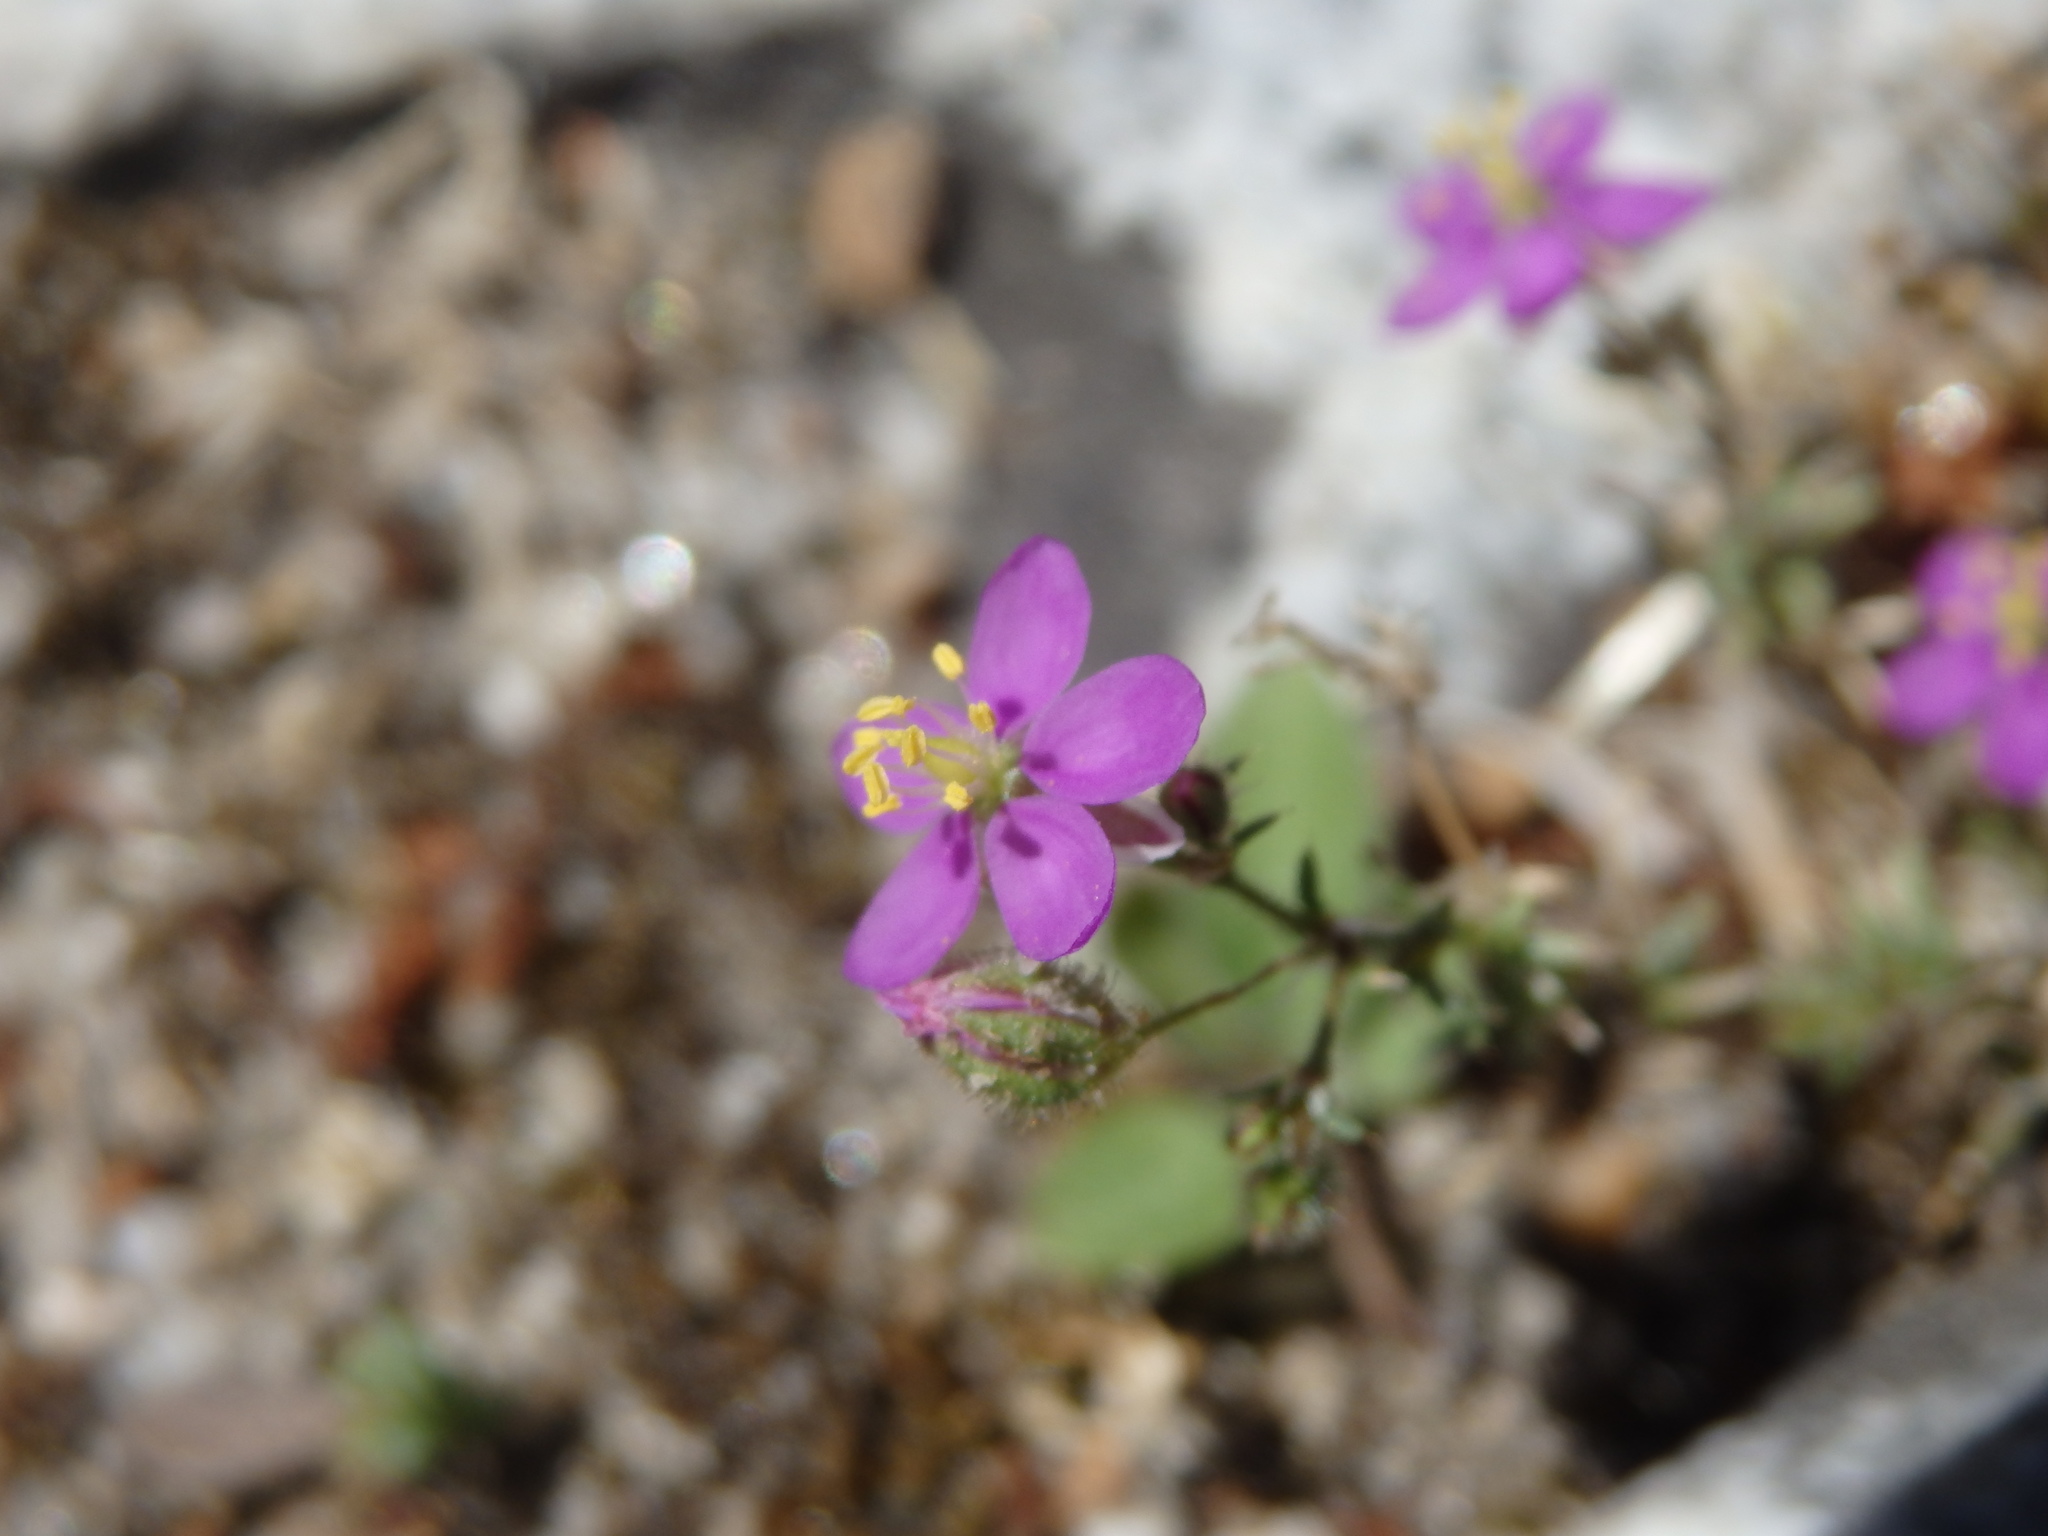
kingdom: Plantae
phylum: Tracheophyta
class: Magnoliopsida
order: Caryophyllales
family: Caryophyllaceae
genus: Spergularia
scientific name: Spergularia purpurea
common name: Purple sandspurry
